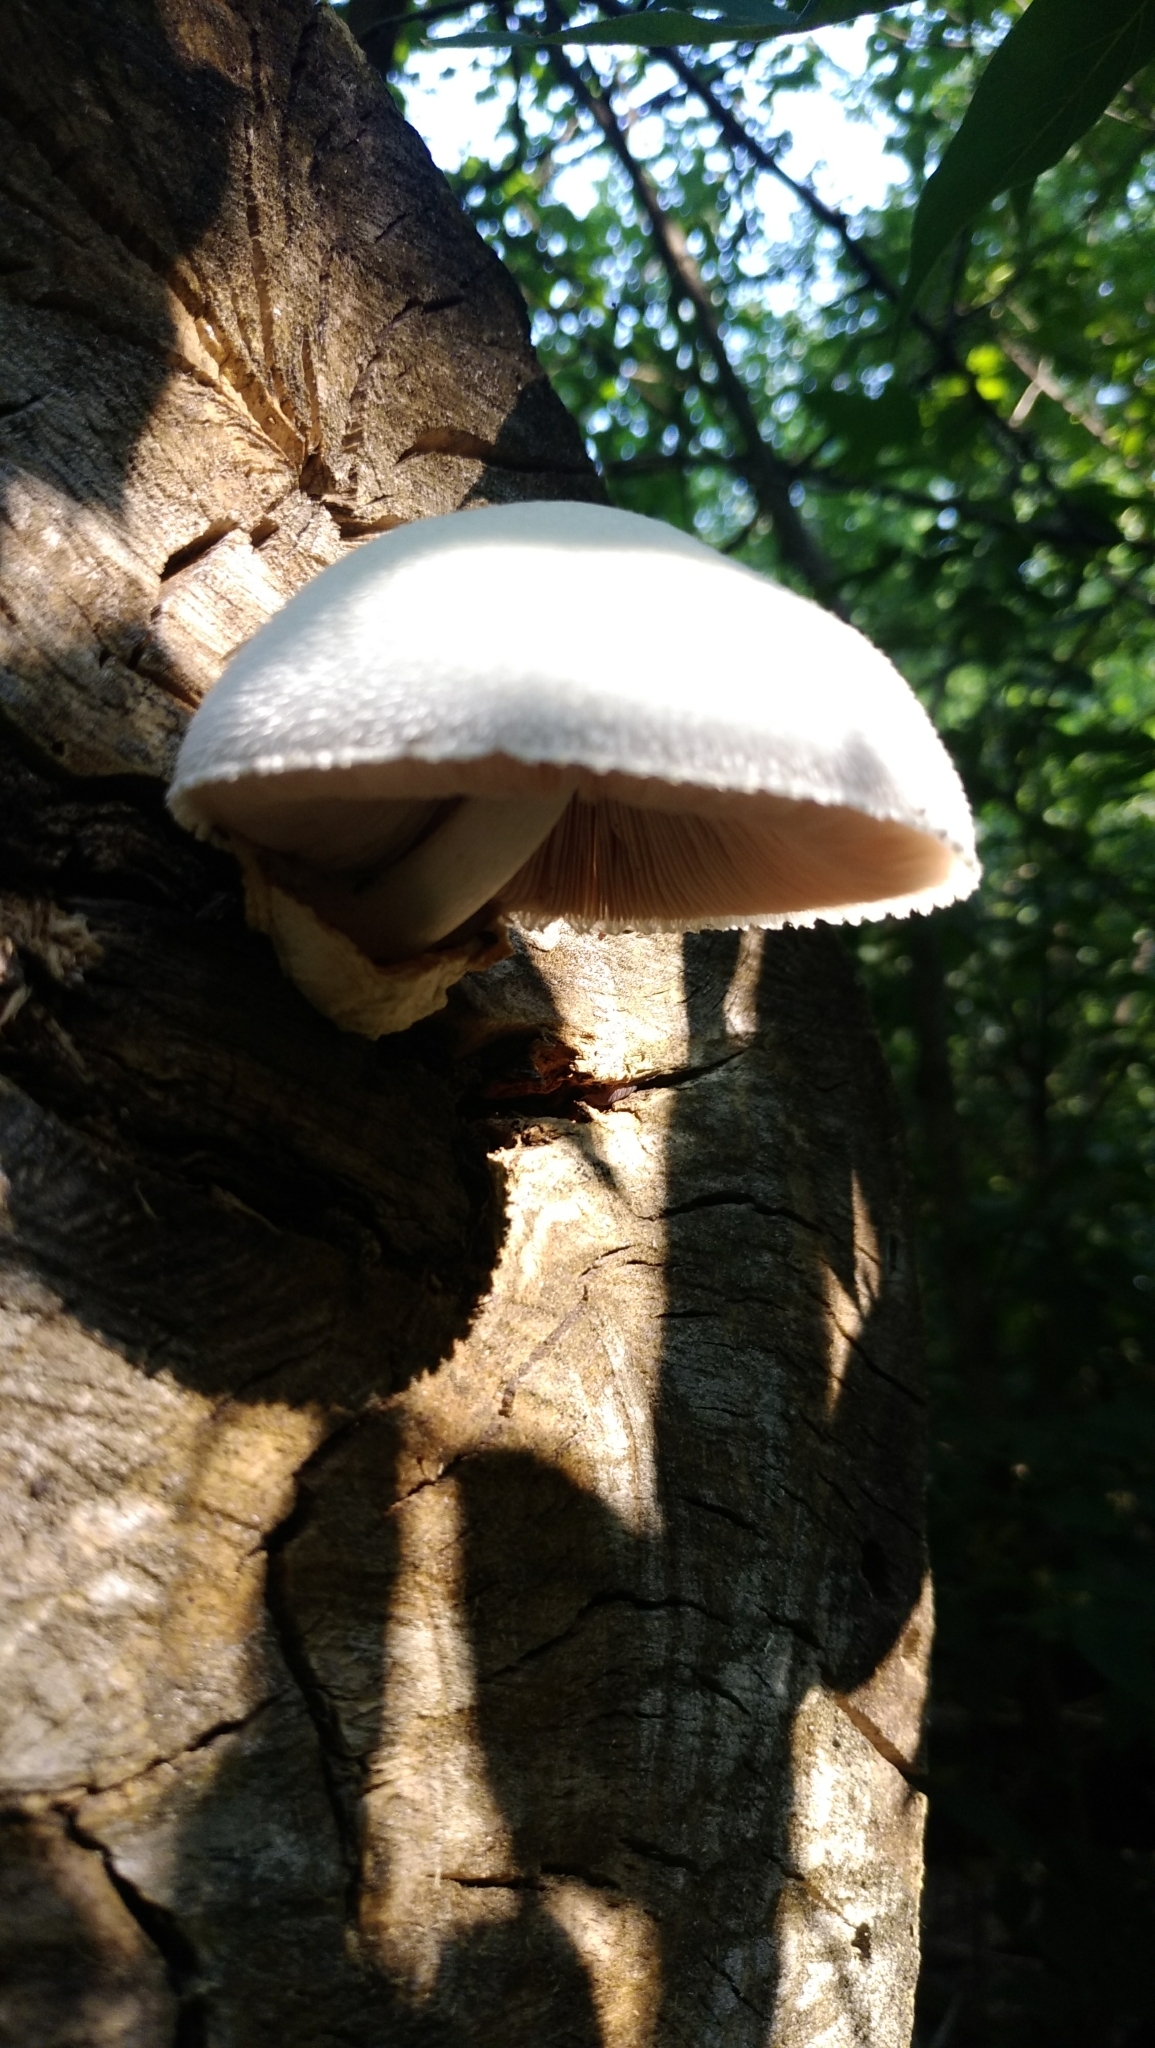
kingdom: Fungi
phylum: Basidiomycota
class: Agaricomycetes
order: Agaricales
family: Pluteaceae
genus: Volvariella
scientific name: Volvariella bombycina
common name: Silky rosegill
